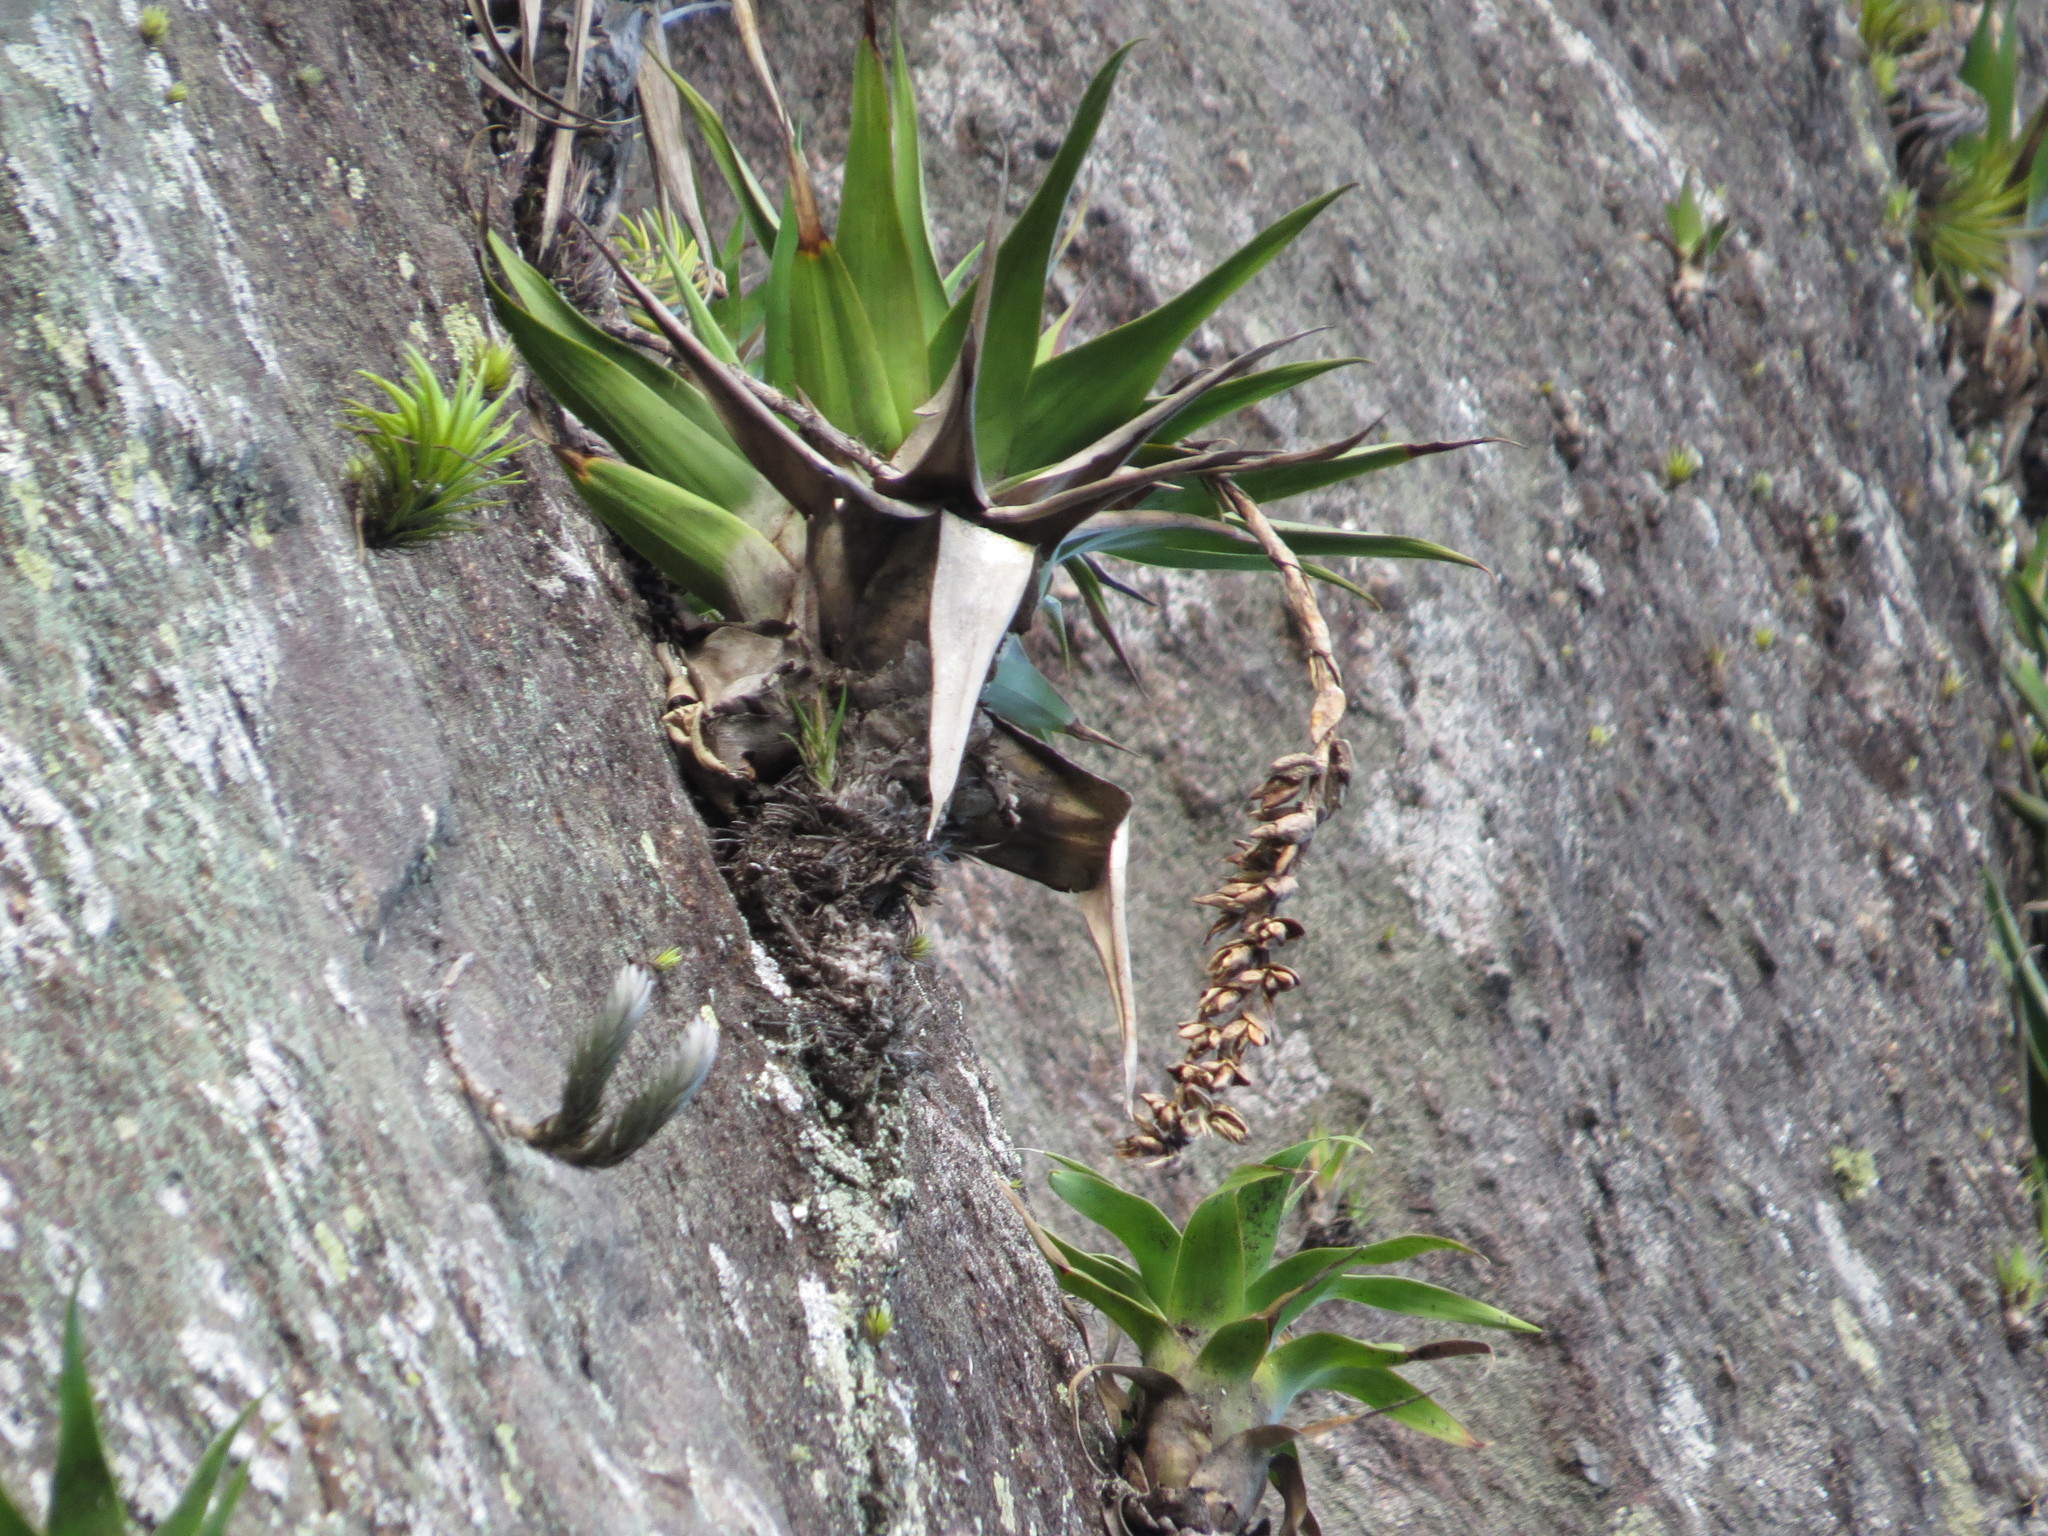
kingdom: Plantae
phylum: Tracheophyta
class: Liliopsida
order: Poales
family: Bromeliaceae
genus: Stigmatodon
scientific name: Stigmatodon goniorachis
